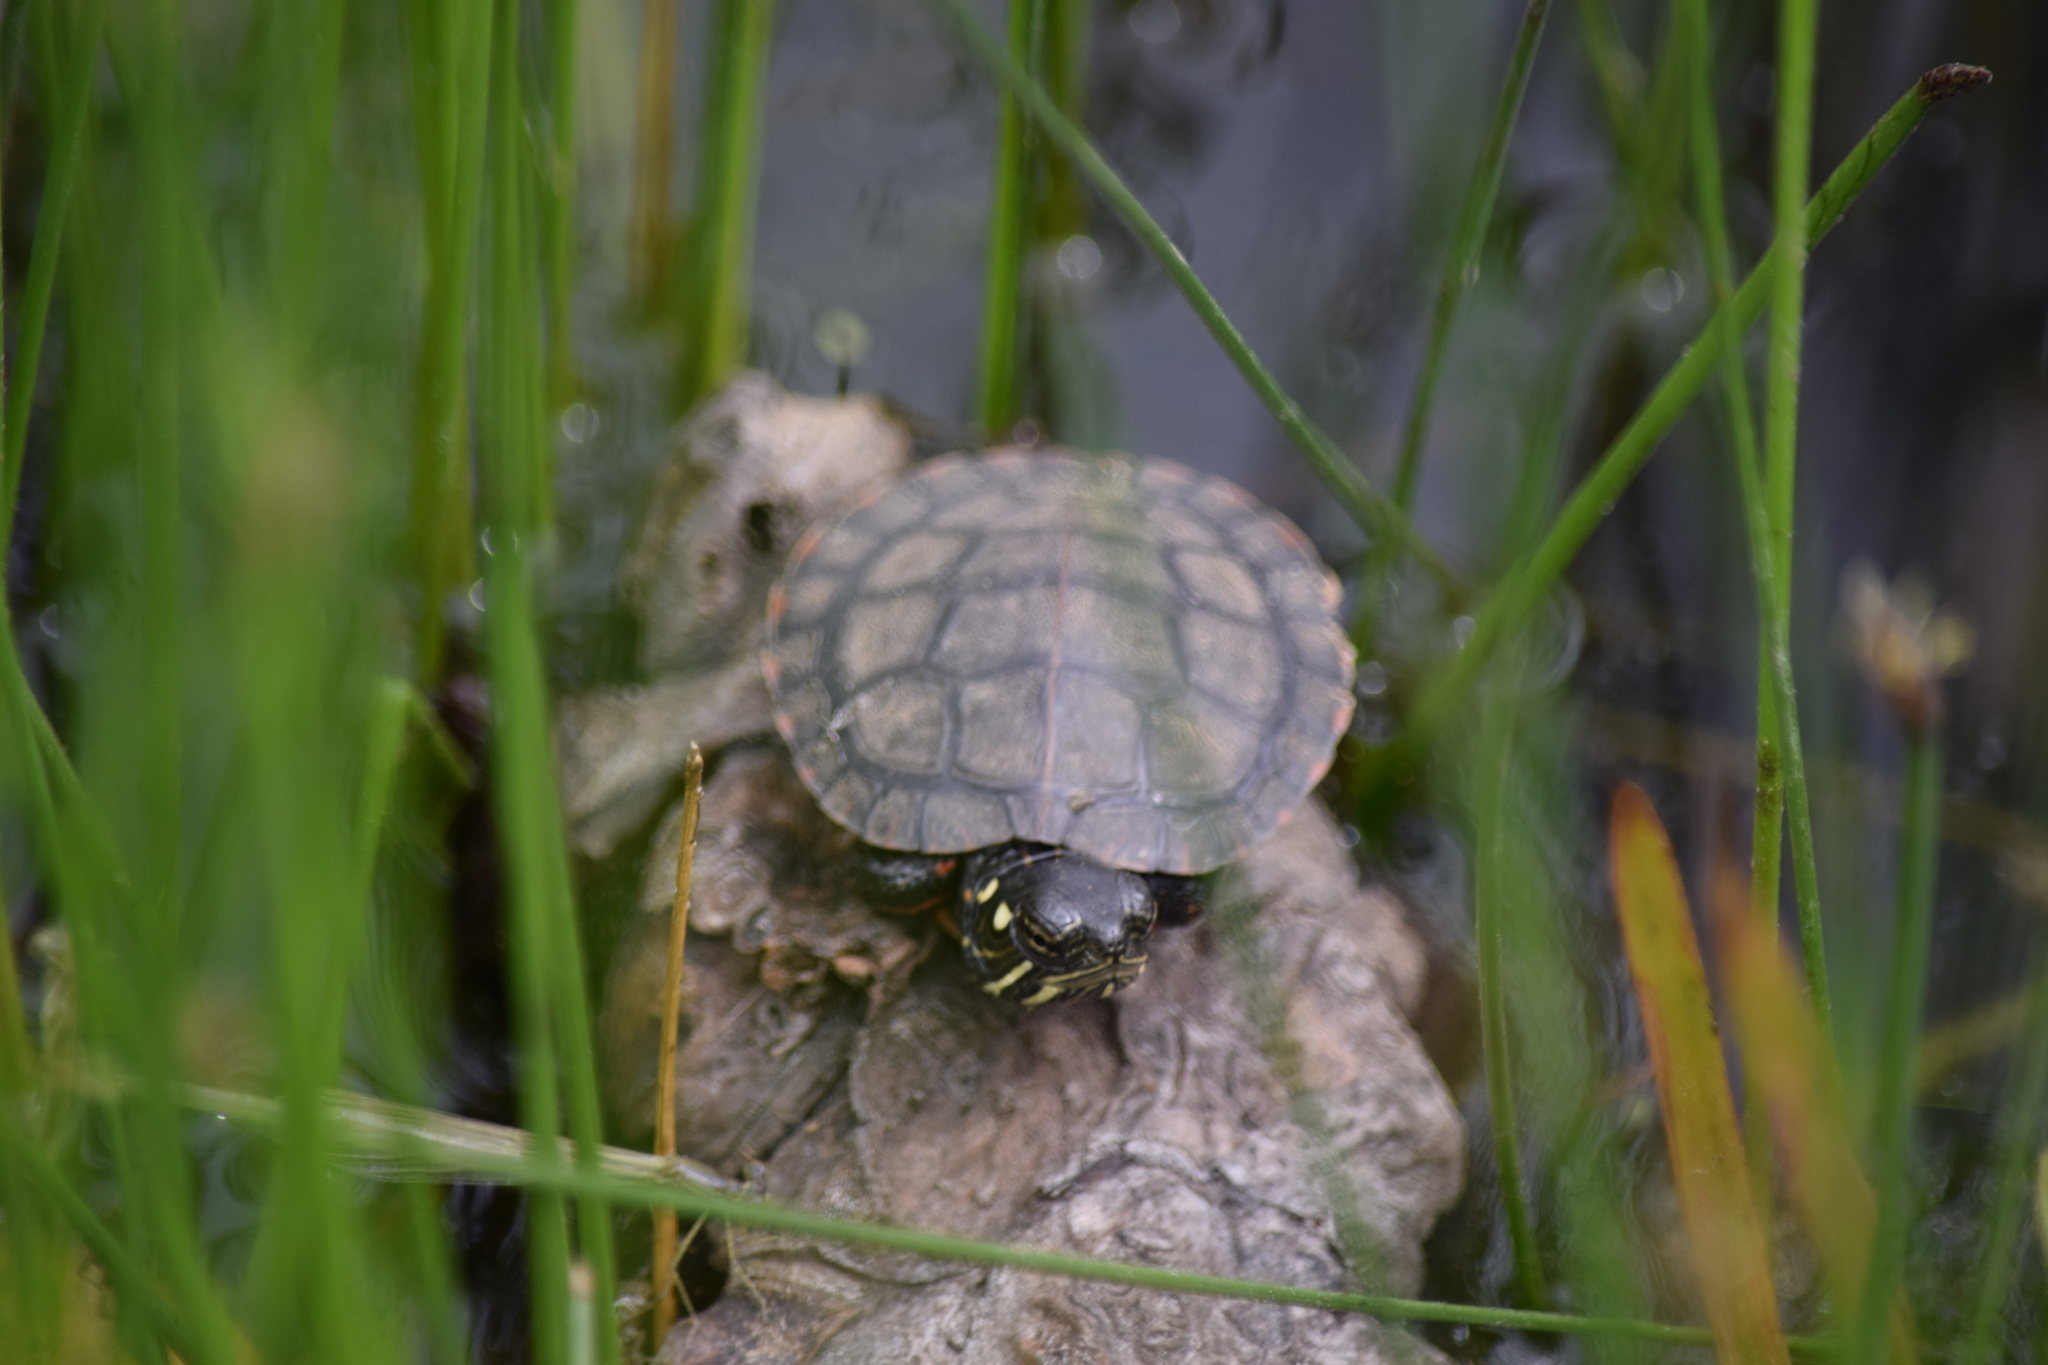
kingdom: Animalia
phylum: Chordata
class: Testudines
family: Emydidae
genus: Chrysemys
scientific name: Chrysemys picta
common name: Painted turtle
